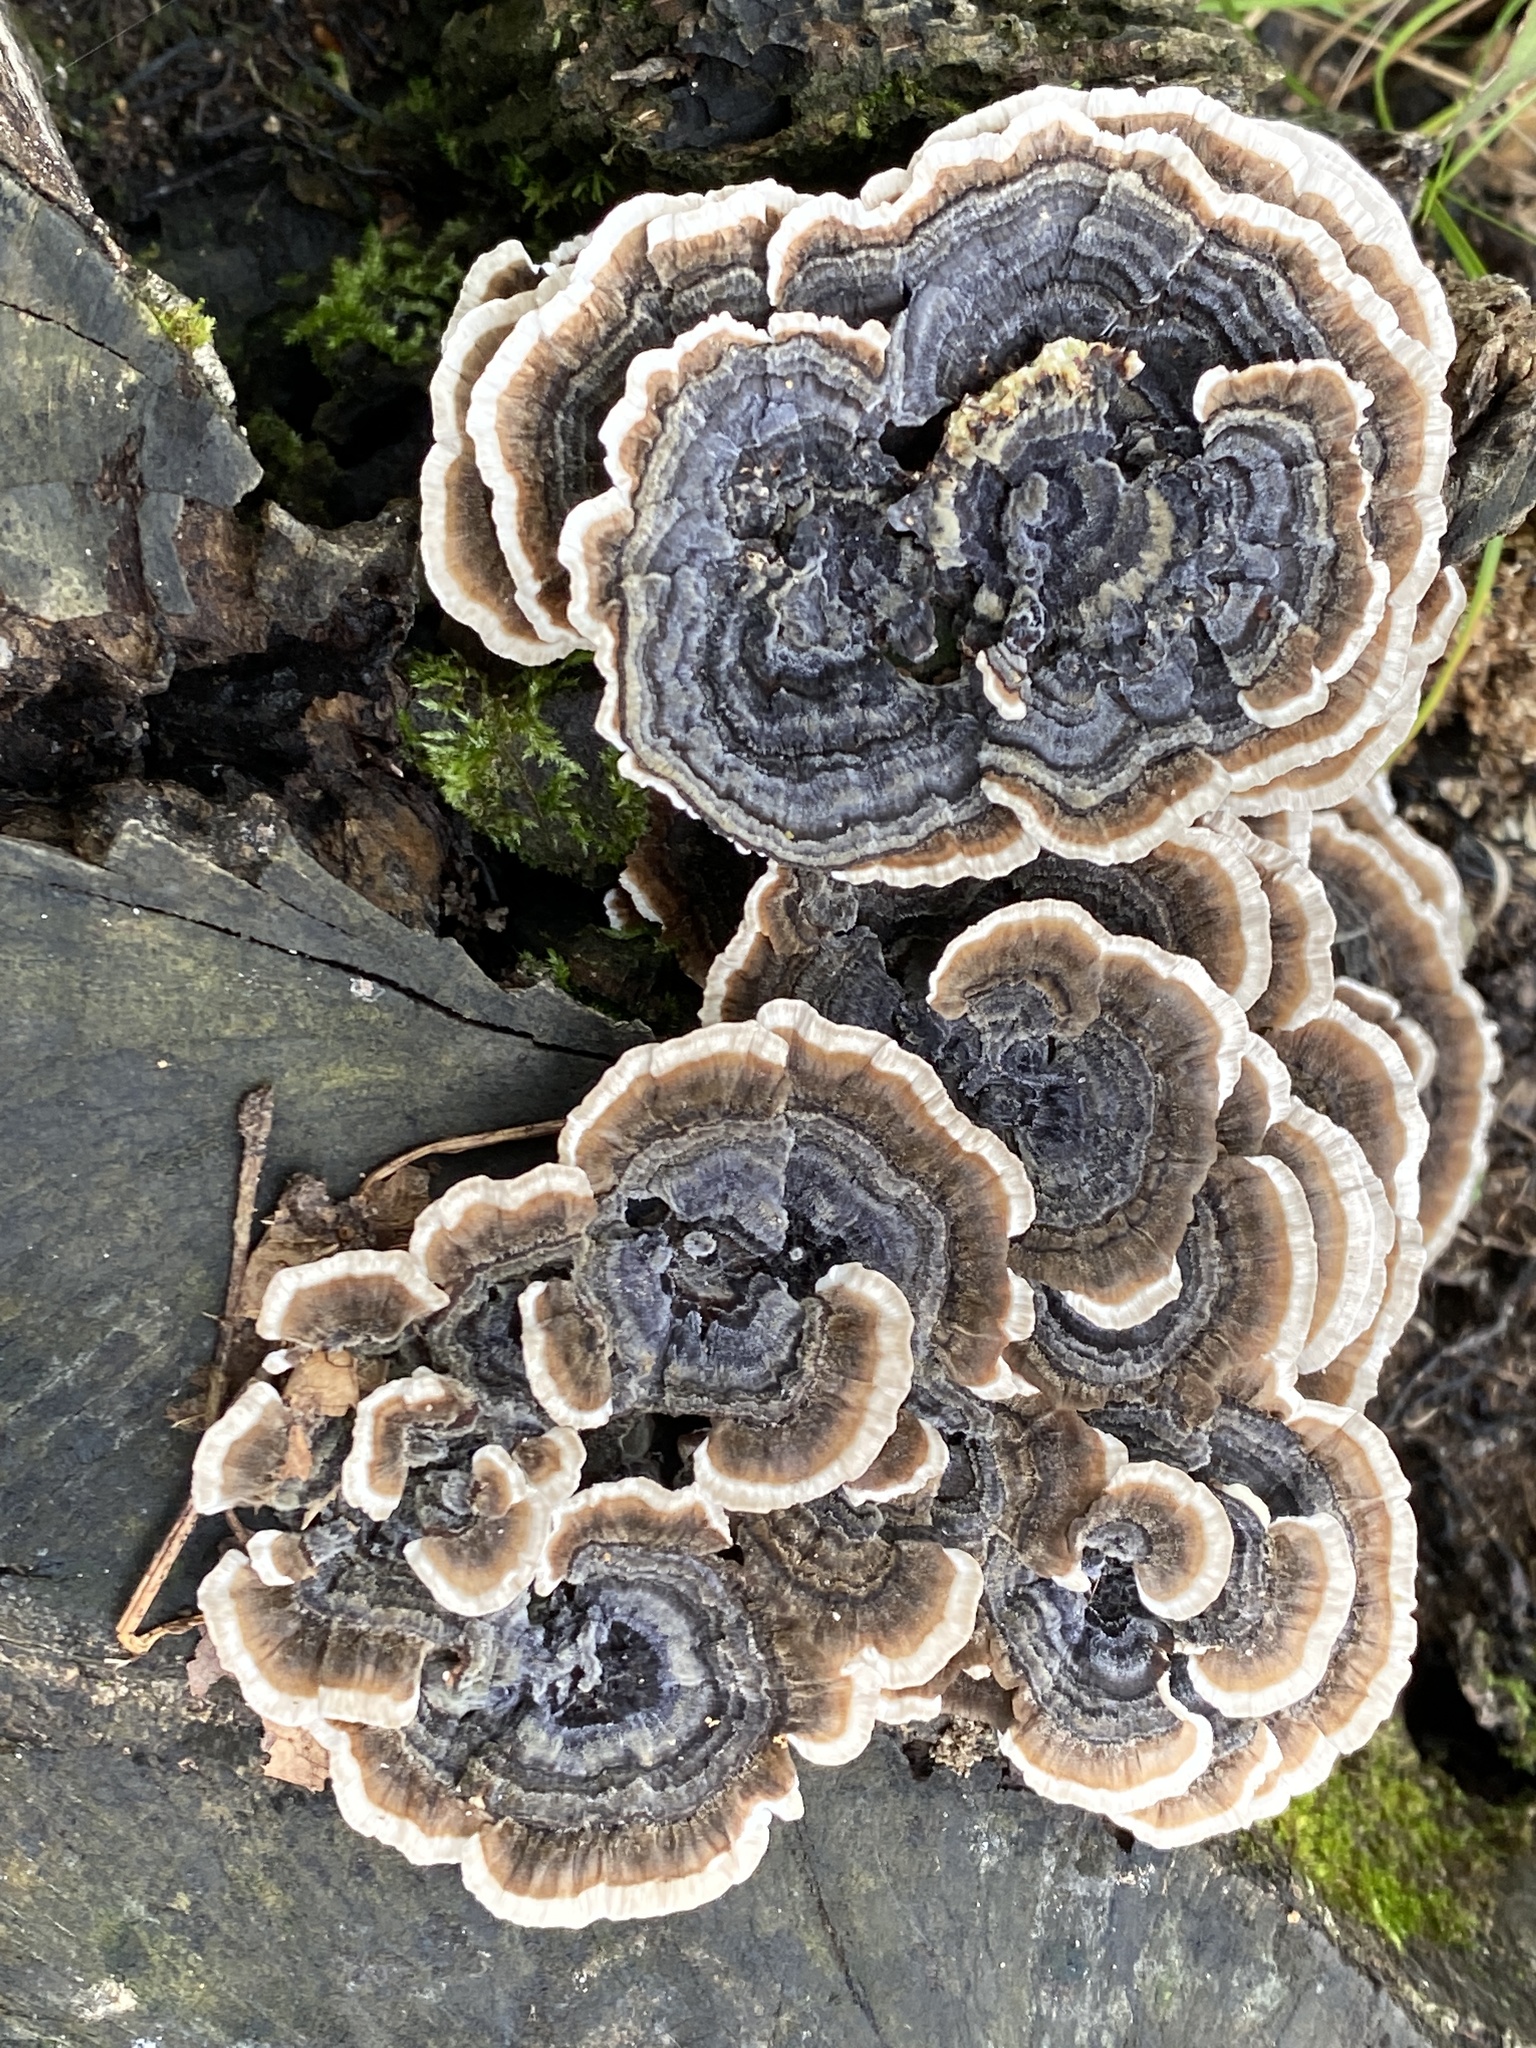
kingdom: Fungi
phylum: Basidiomycota
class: Agaricomycetes
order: Polyporales
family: Polyporaceae
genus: Trametes
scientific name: Trametes versicolor
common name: Turkeytail
